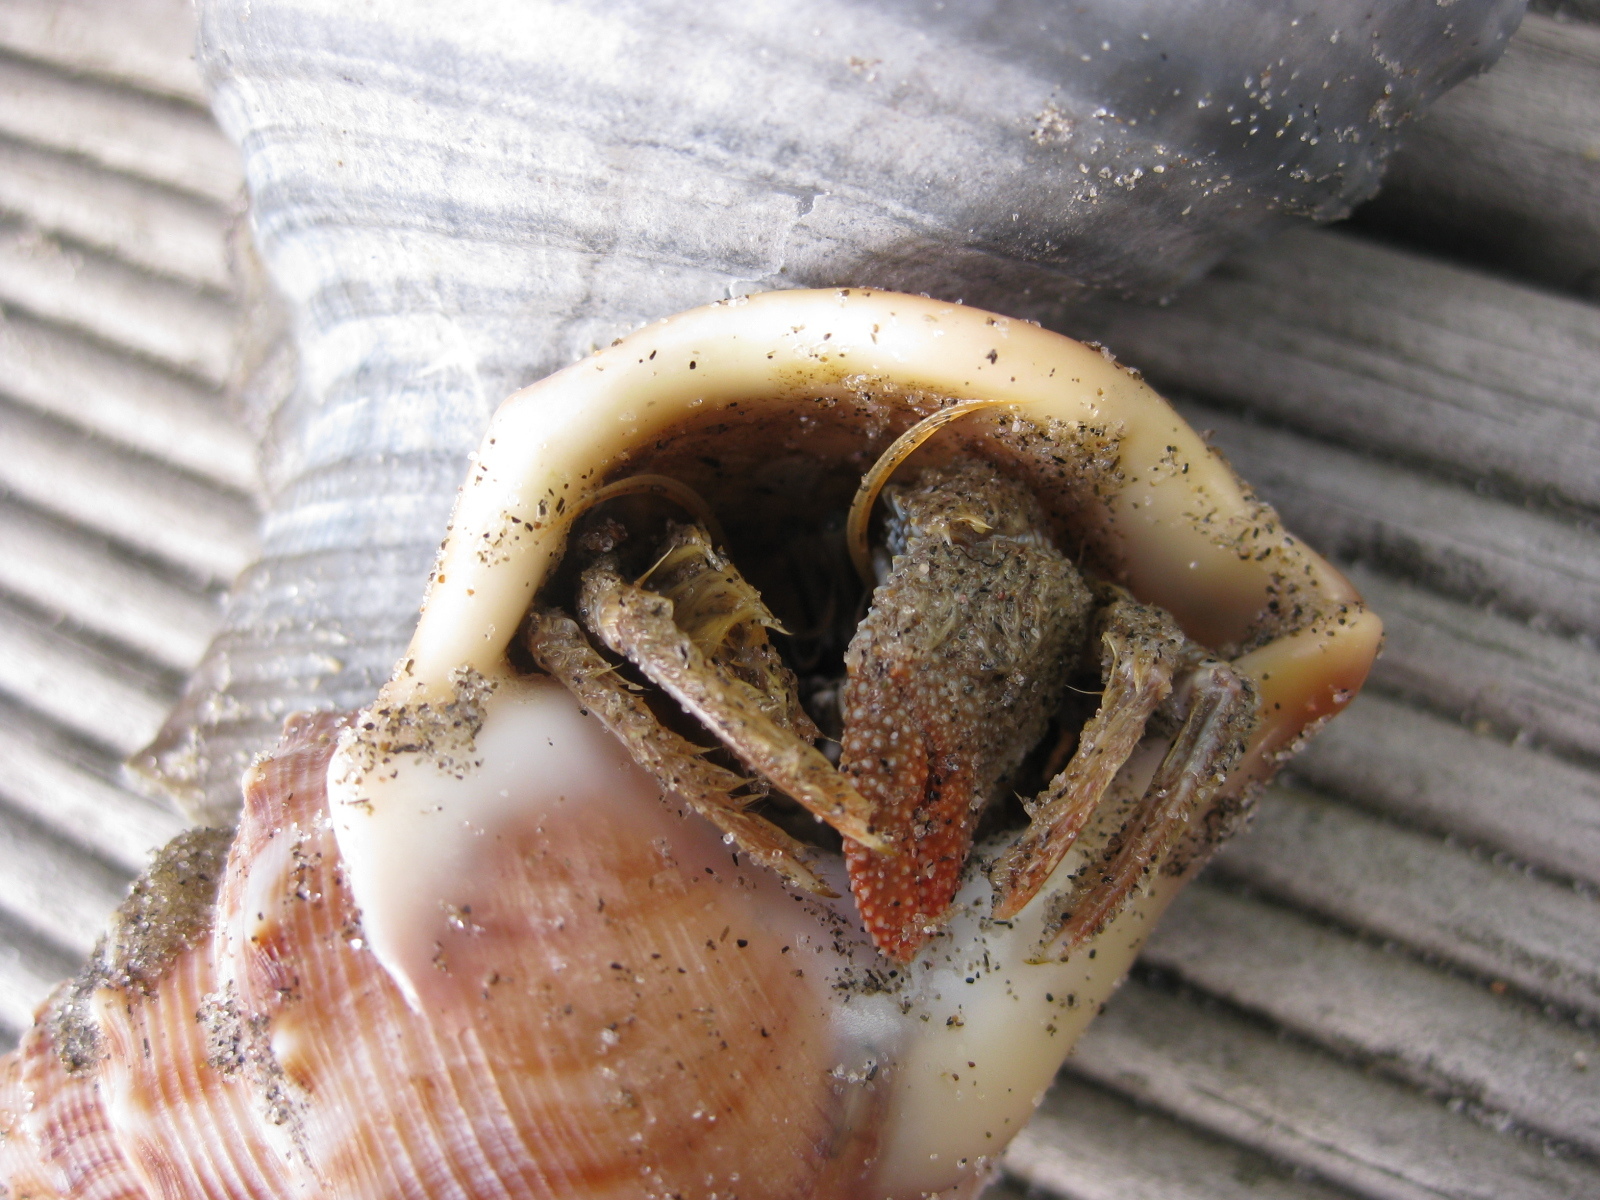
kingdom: Animalia
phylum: Arthropoda
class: Malacostraca
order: Decapoda
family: Diogenidae
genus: Areopaguristes
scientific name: Areopaguristes setosus
